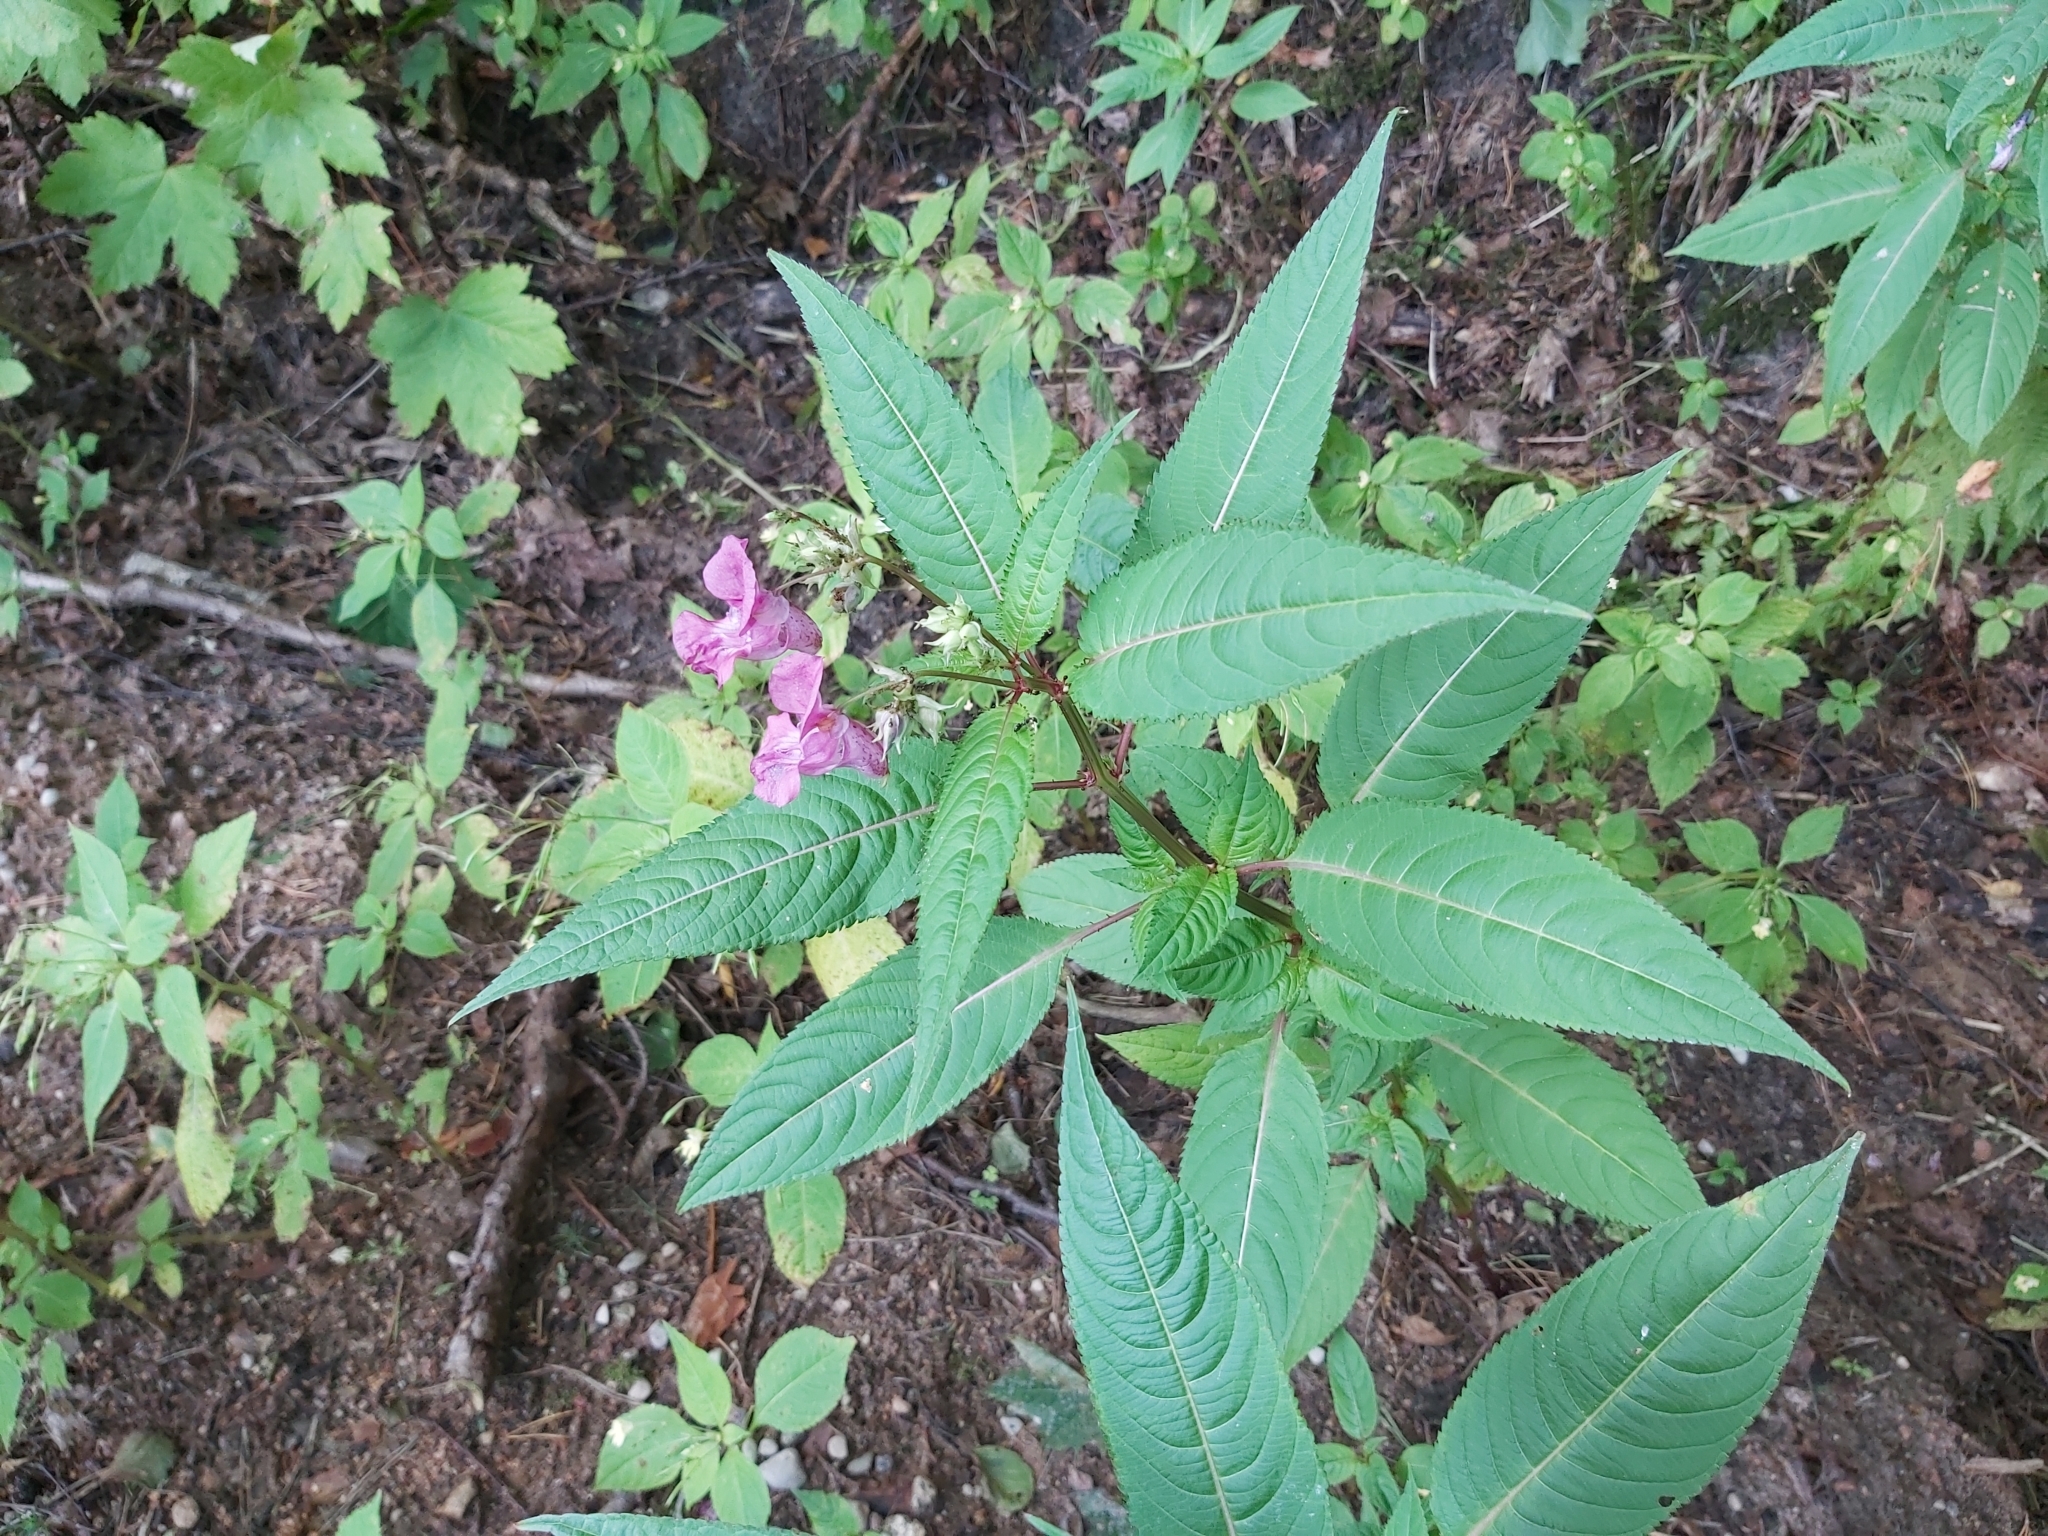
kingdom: Plantae
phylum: Tracheophyta
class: Magnoliopsida
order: Ericales
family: Balsaminaceae
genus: Impatiens
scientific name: Impatiens glandulifera
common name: Himalayan balsam
